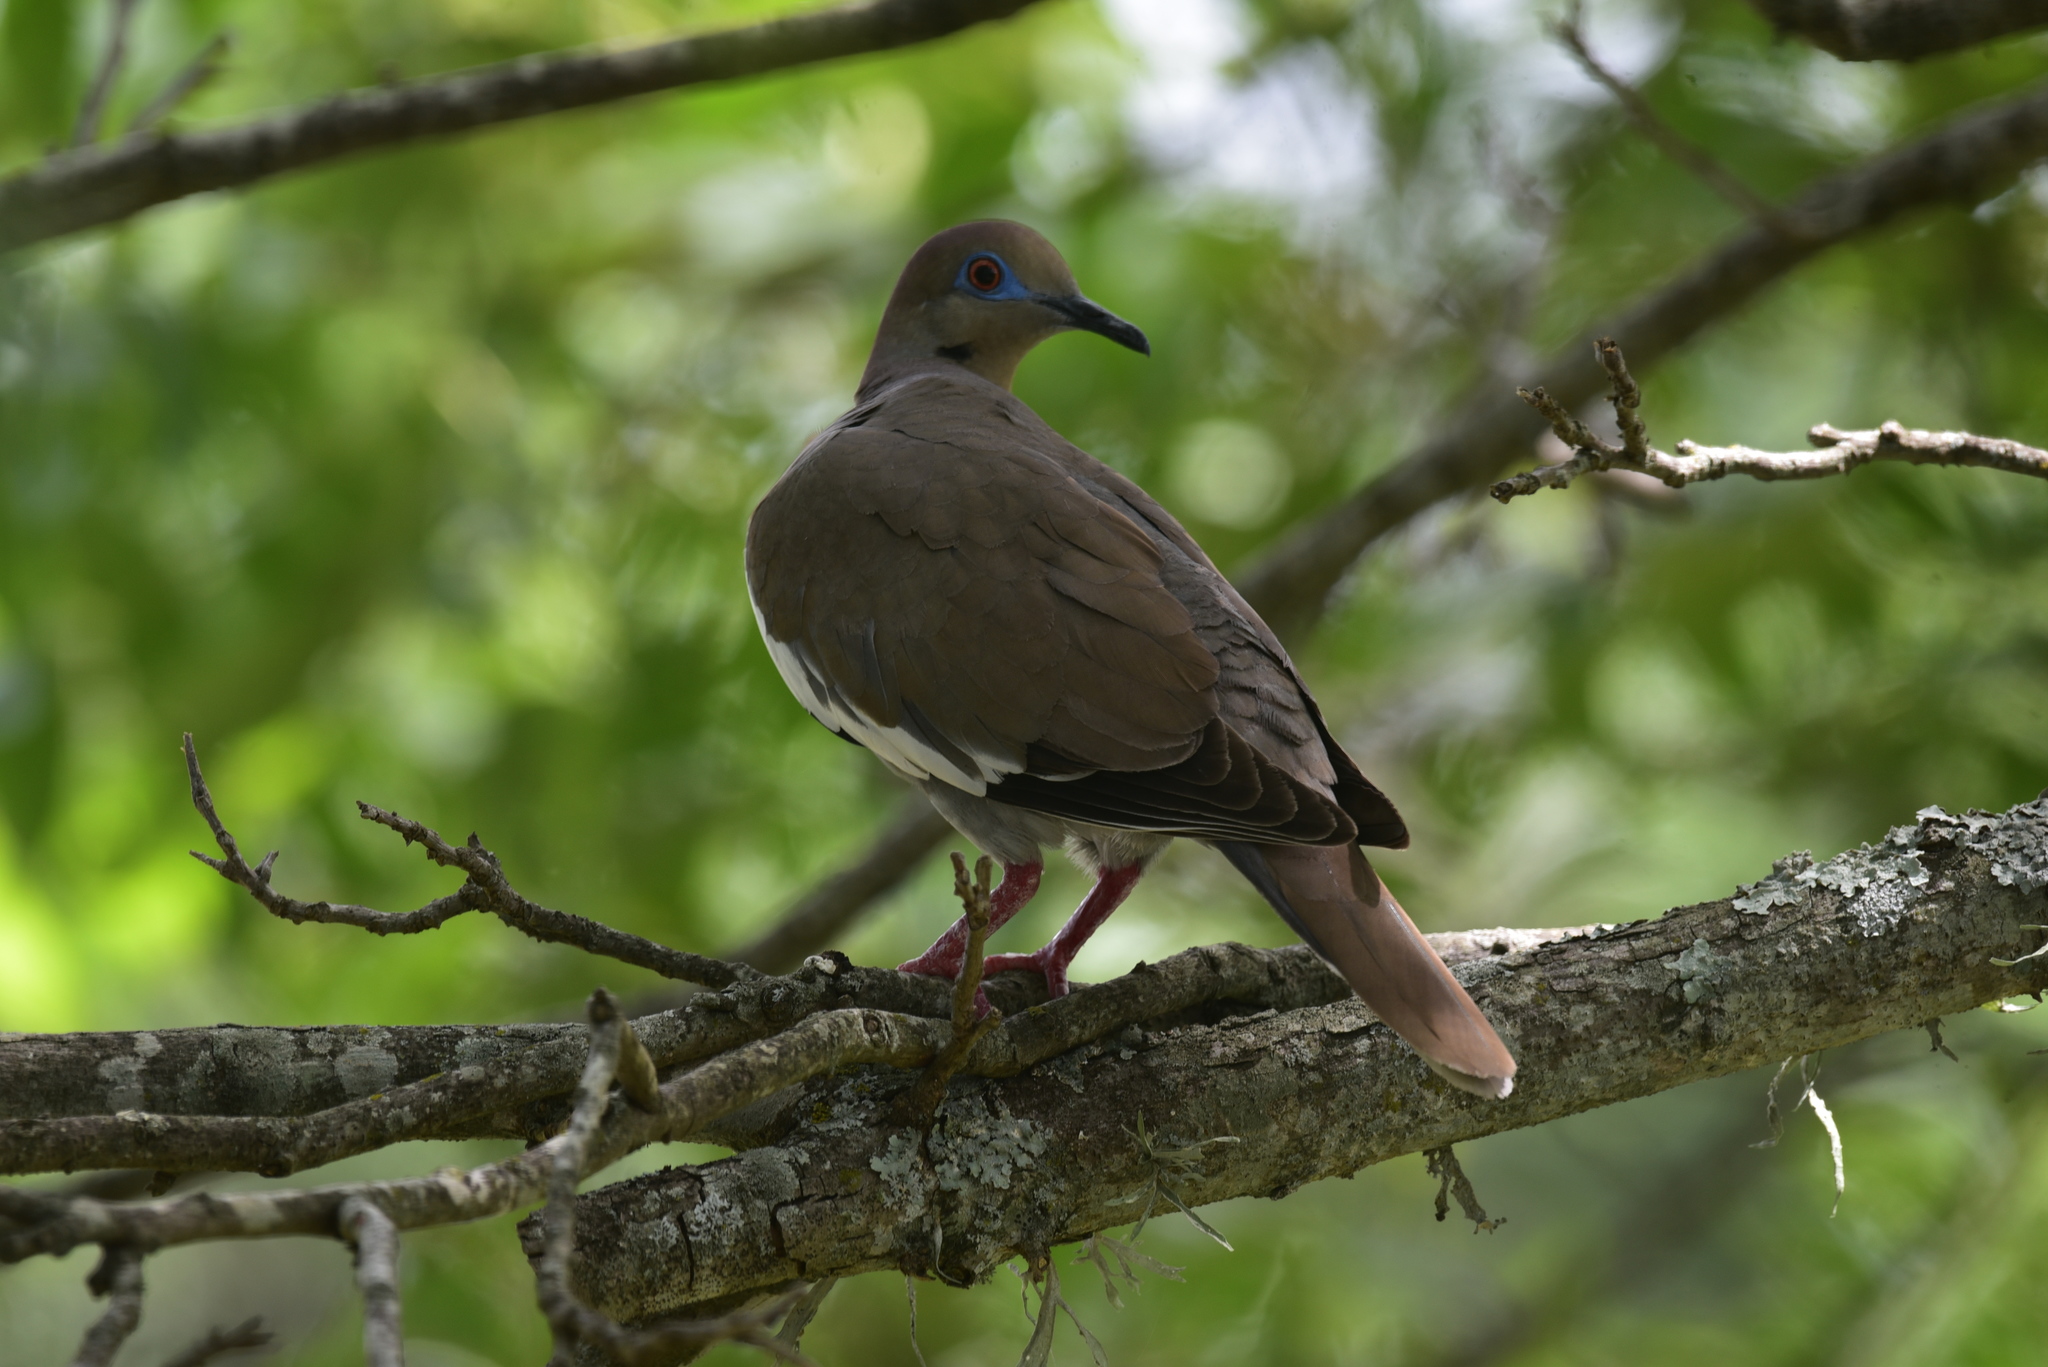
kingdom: Animalia
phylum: Chordata
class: Aves
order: Columbiformes
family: Columbidae
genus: Zenaida
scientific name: Zenaida asiatica
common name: White-winged dove
